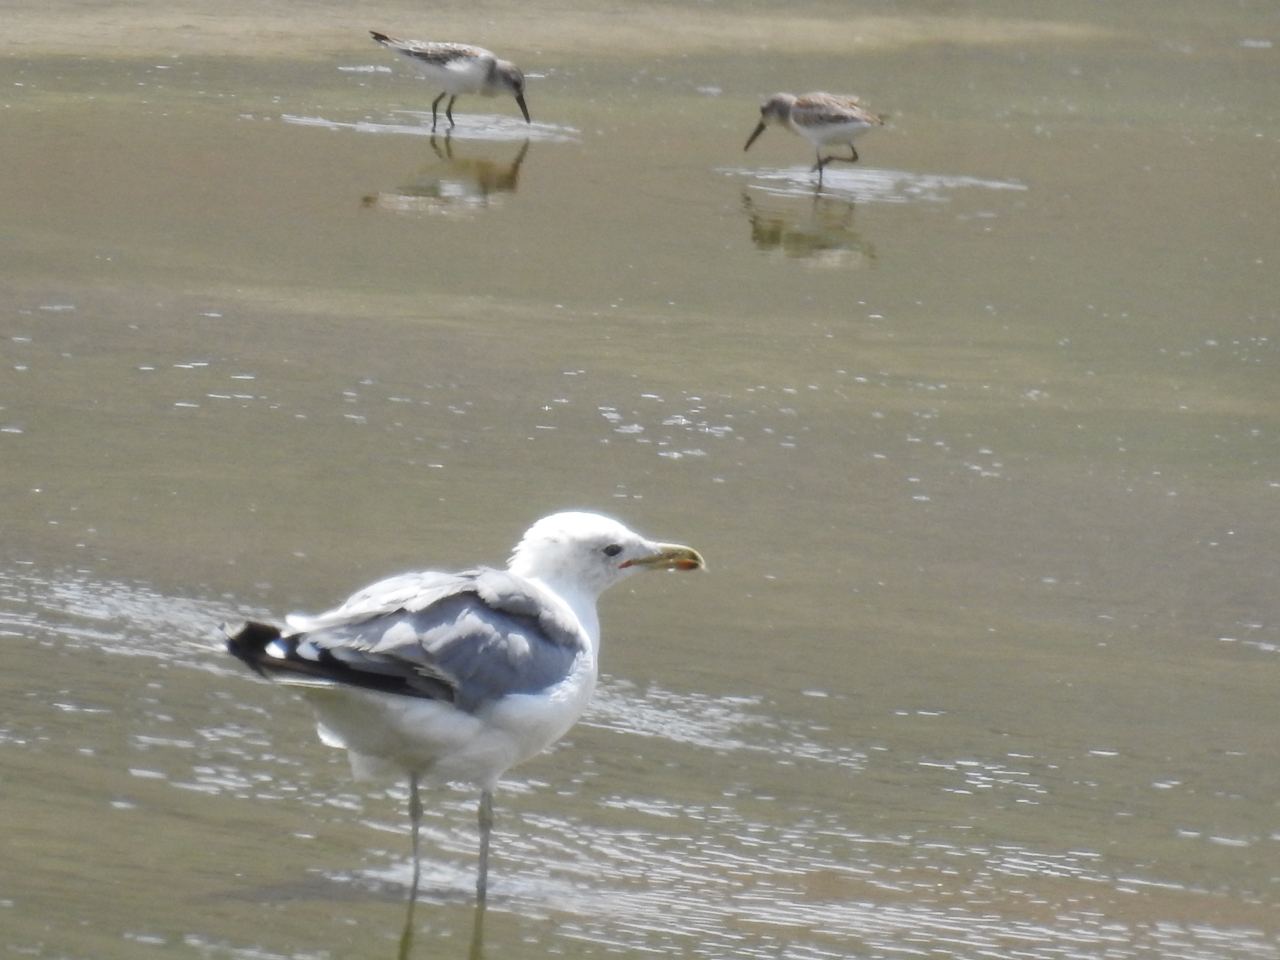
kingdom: Animalia
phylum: Chordata
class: Aves
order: Charadriiformes
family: Laridae
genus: Larus
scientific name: Larus californicus
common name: California gull
